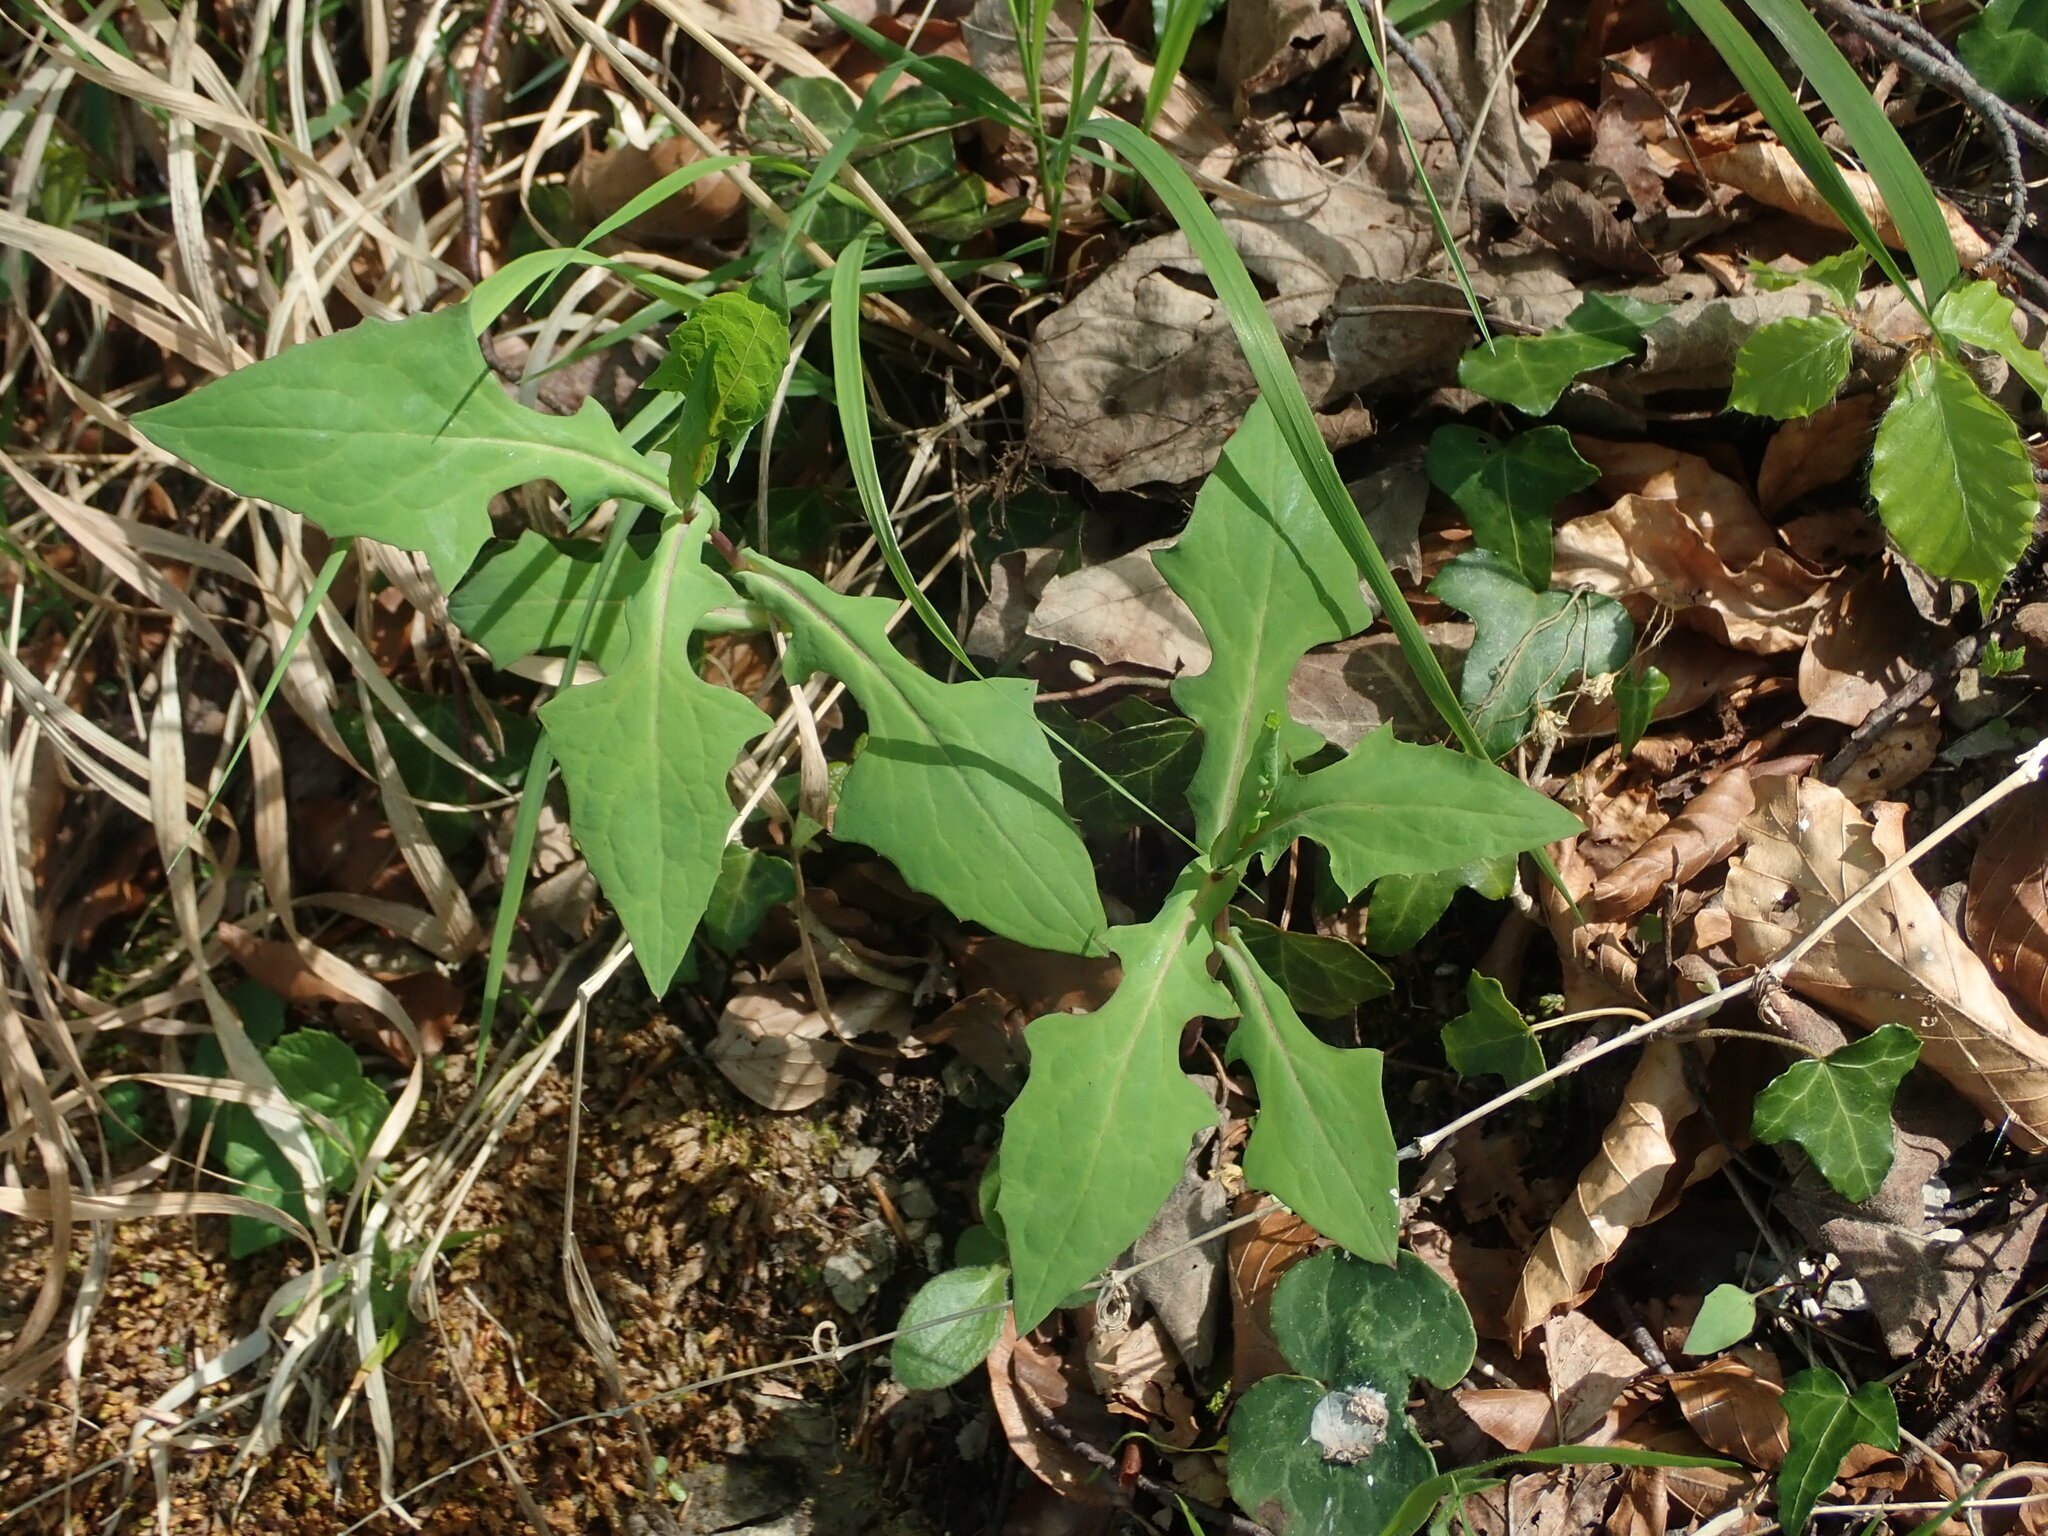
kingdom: Plantae
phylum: Tracheophyta
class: Magnoliopsida
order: Asterales
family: Asteraceae
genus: Prenanthes
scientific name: Prenanthes purpurea
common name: Purple lettuce
